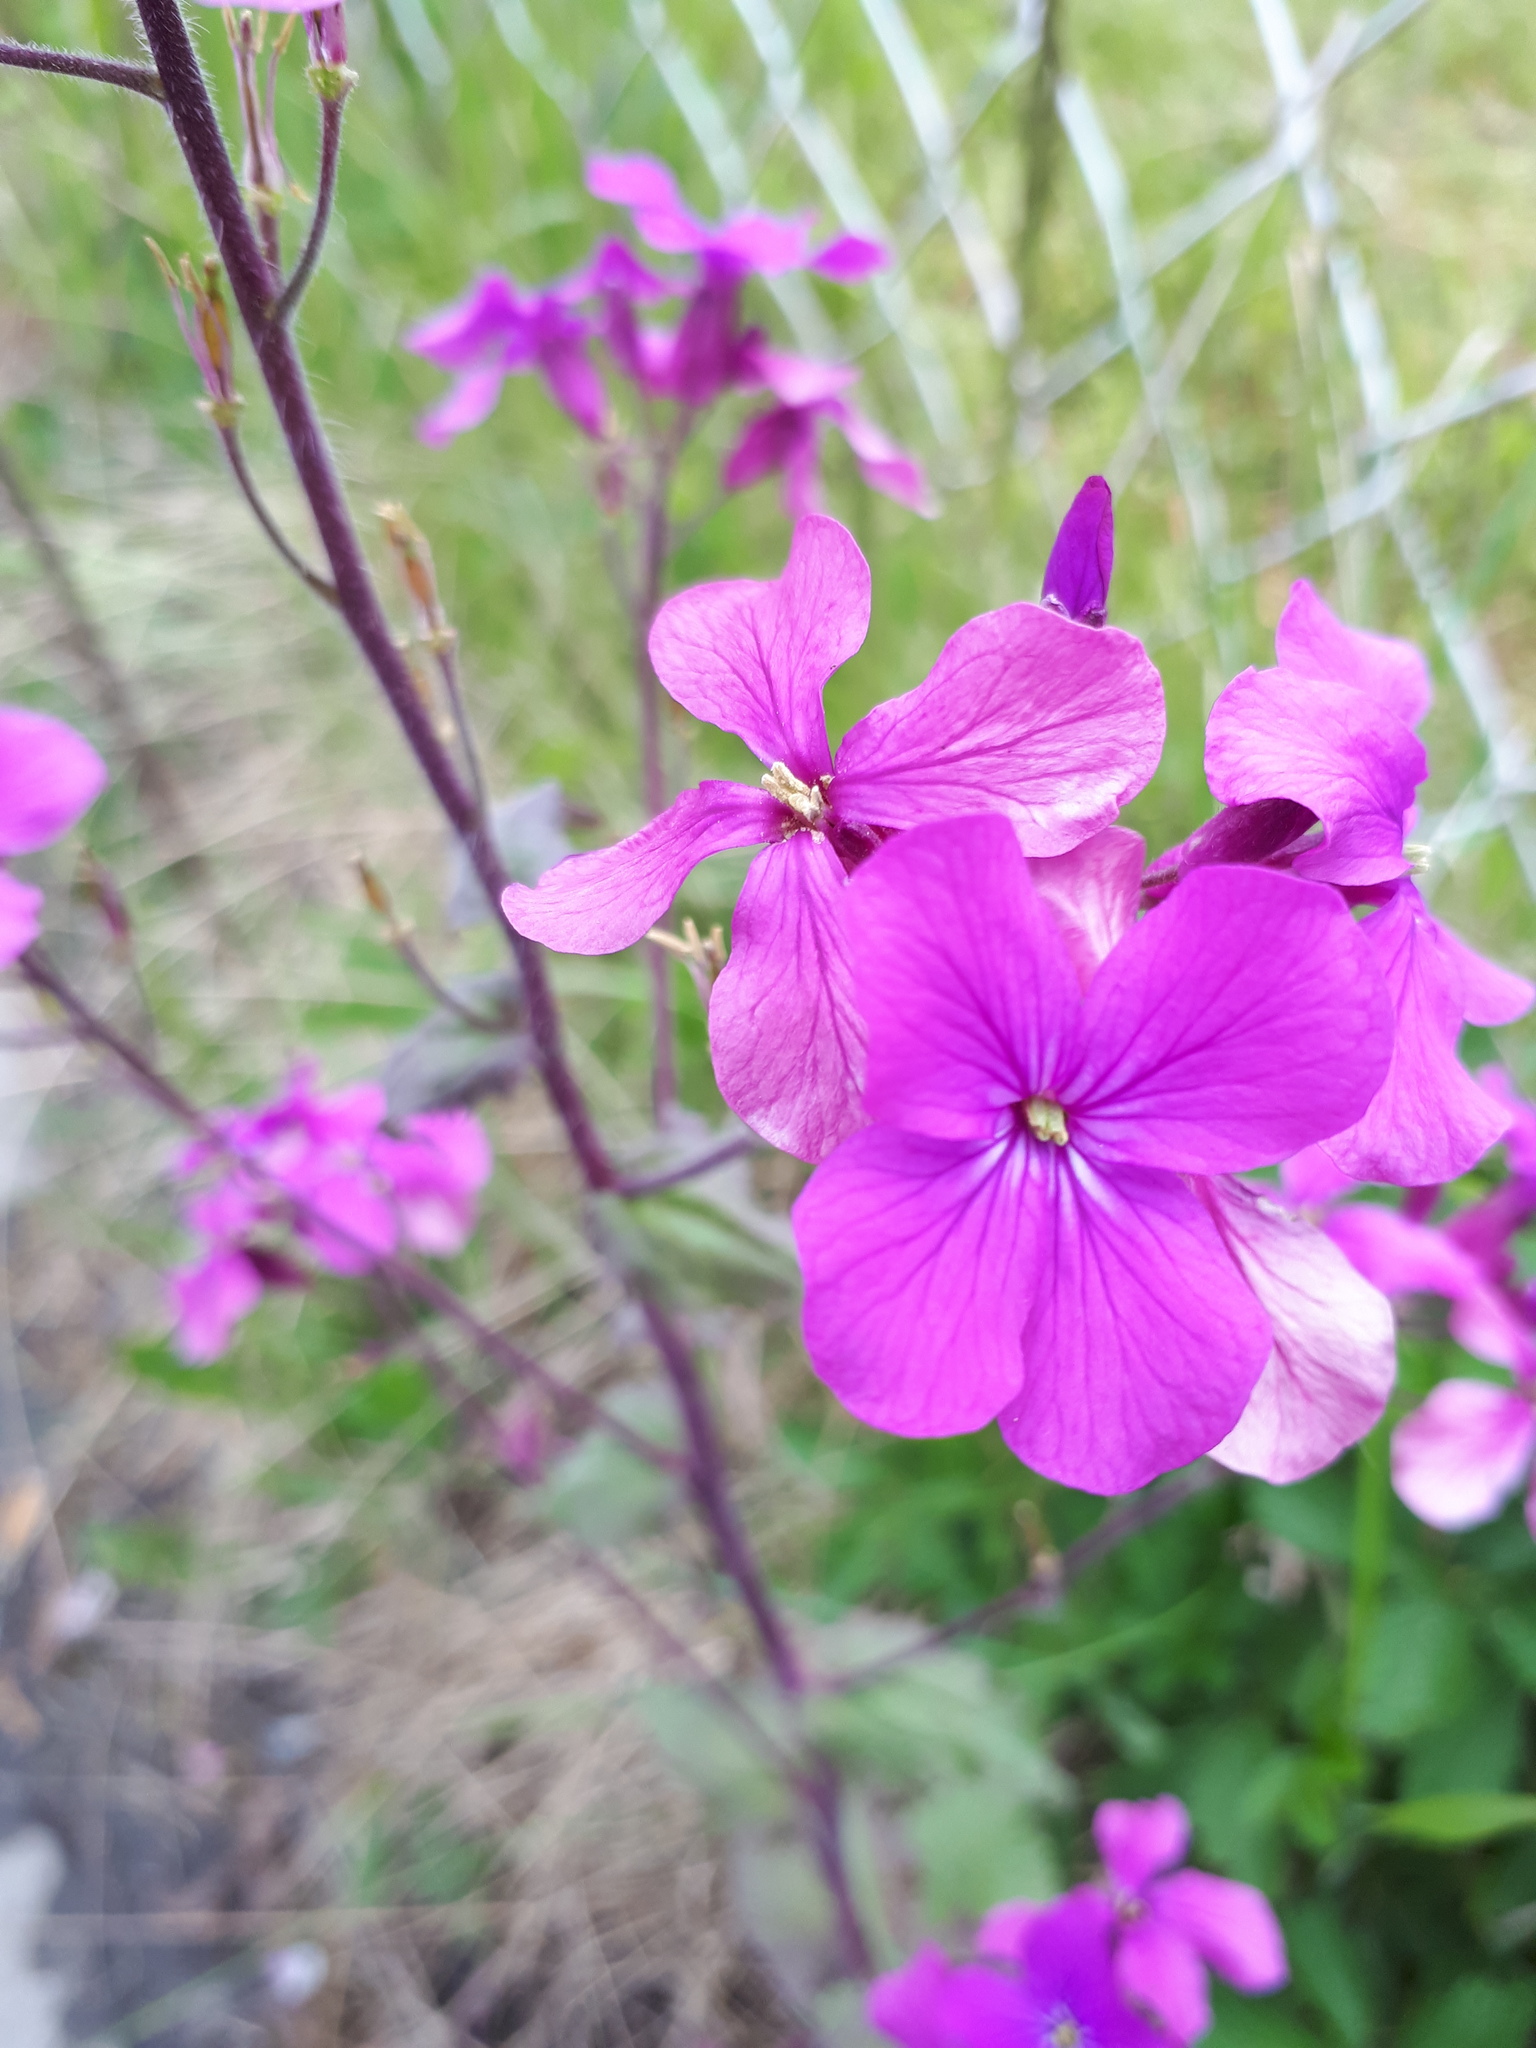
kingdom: Plantae
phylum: Tracheophyta
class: Magnoliopsida
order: Brassicales
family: Brassicaceae
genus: Lunaria
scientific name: Lunaria annua
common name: Honesty
